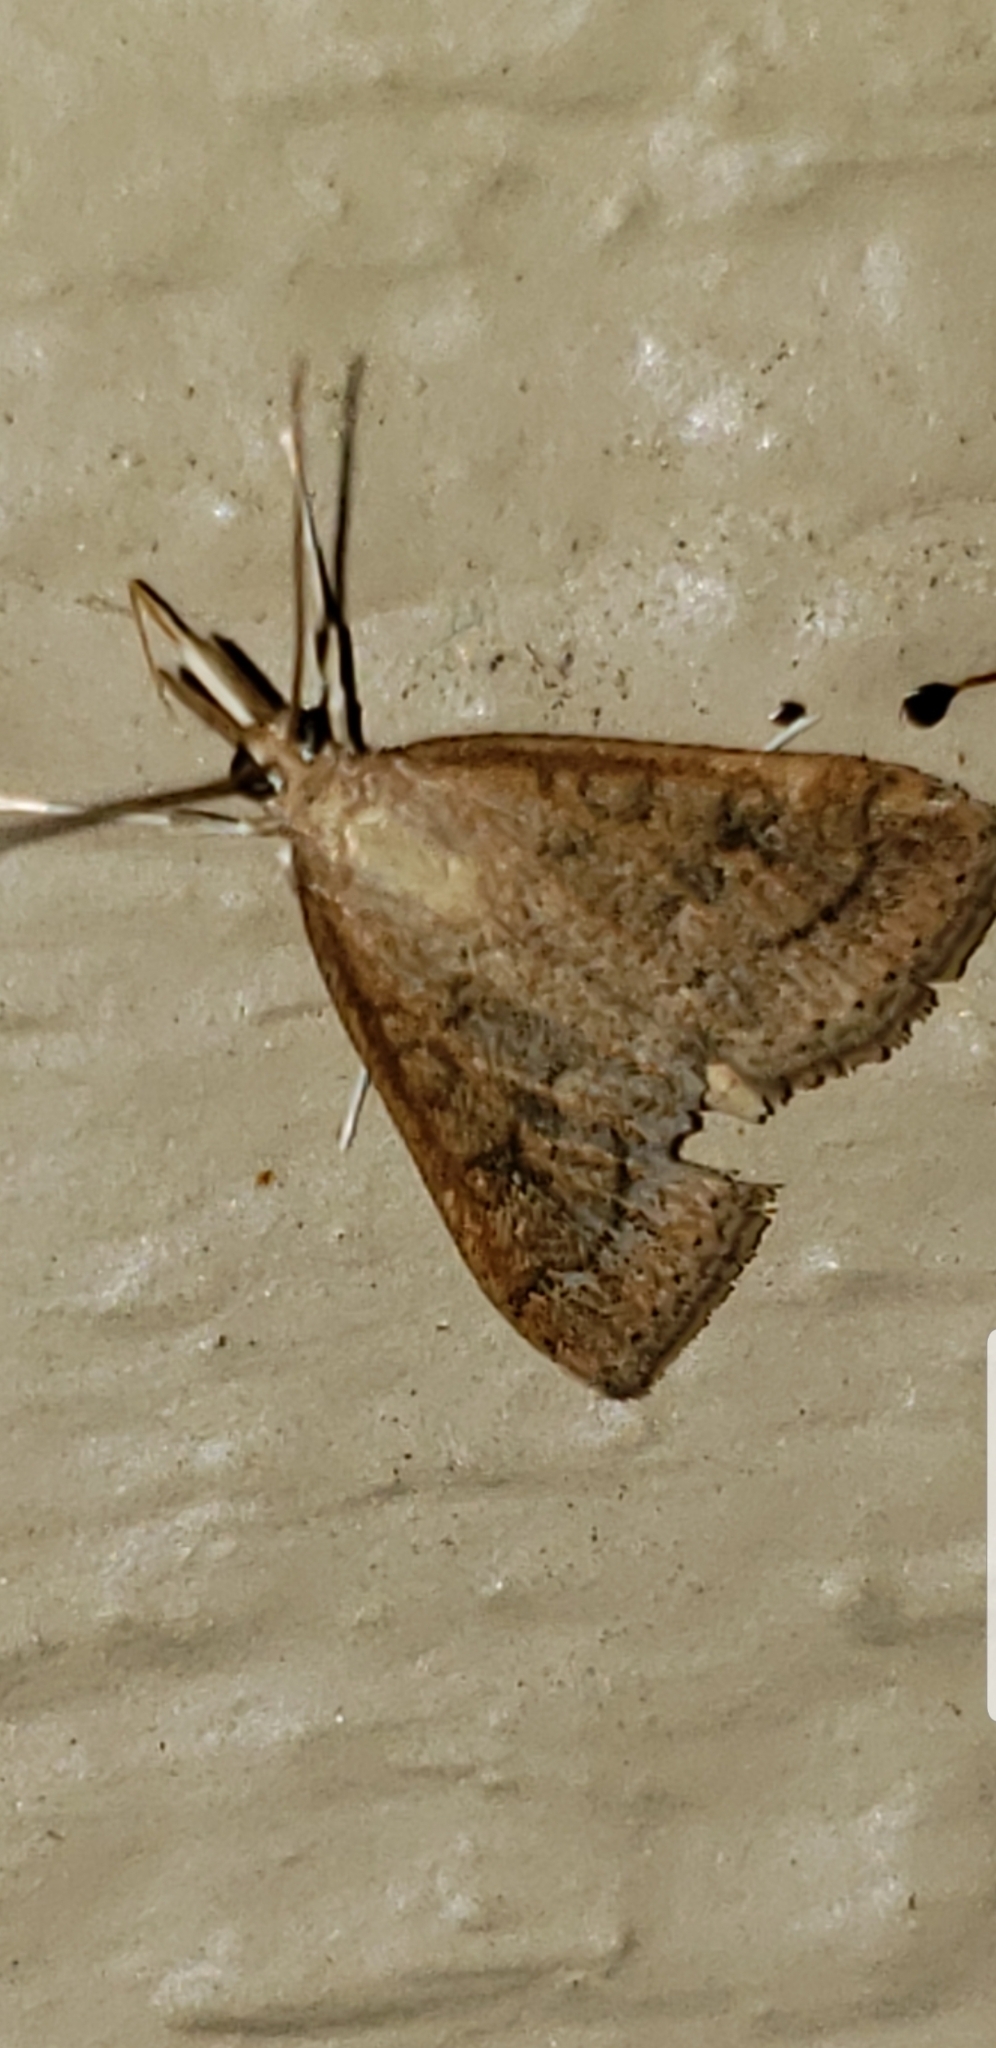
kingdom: Animalia
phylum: Arthropoda
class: Insecta
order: Lepidoptera
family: Crambidae
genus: Udea
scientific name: Udea rubigalis
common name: Celery leaftier moth
